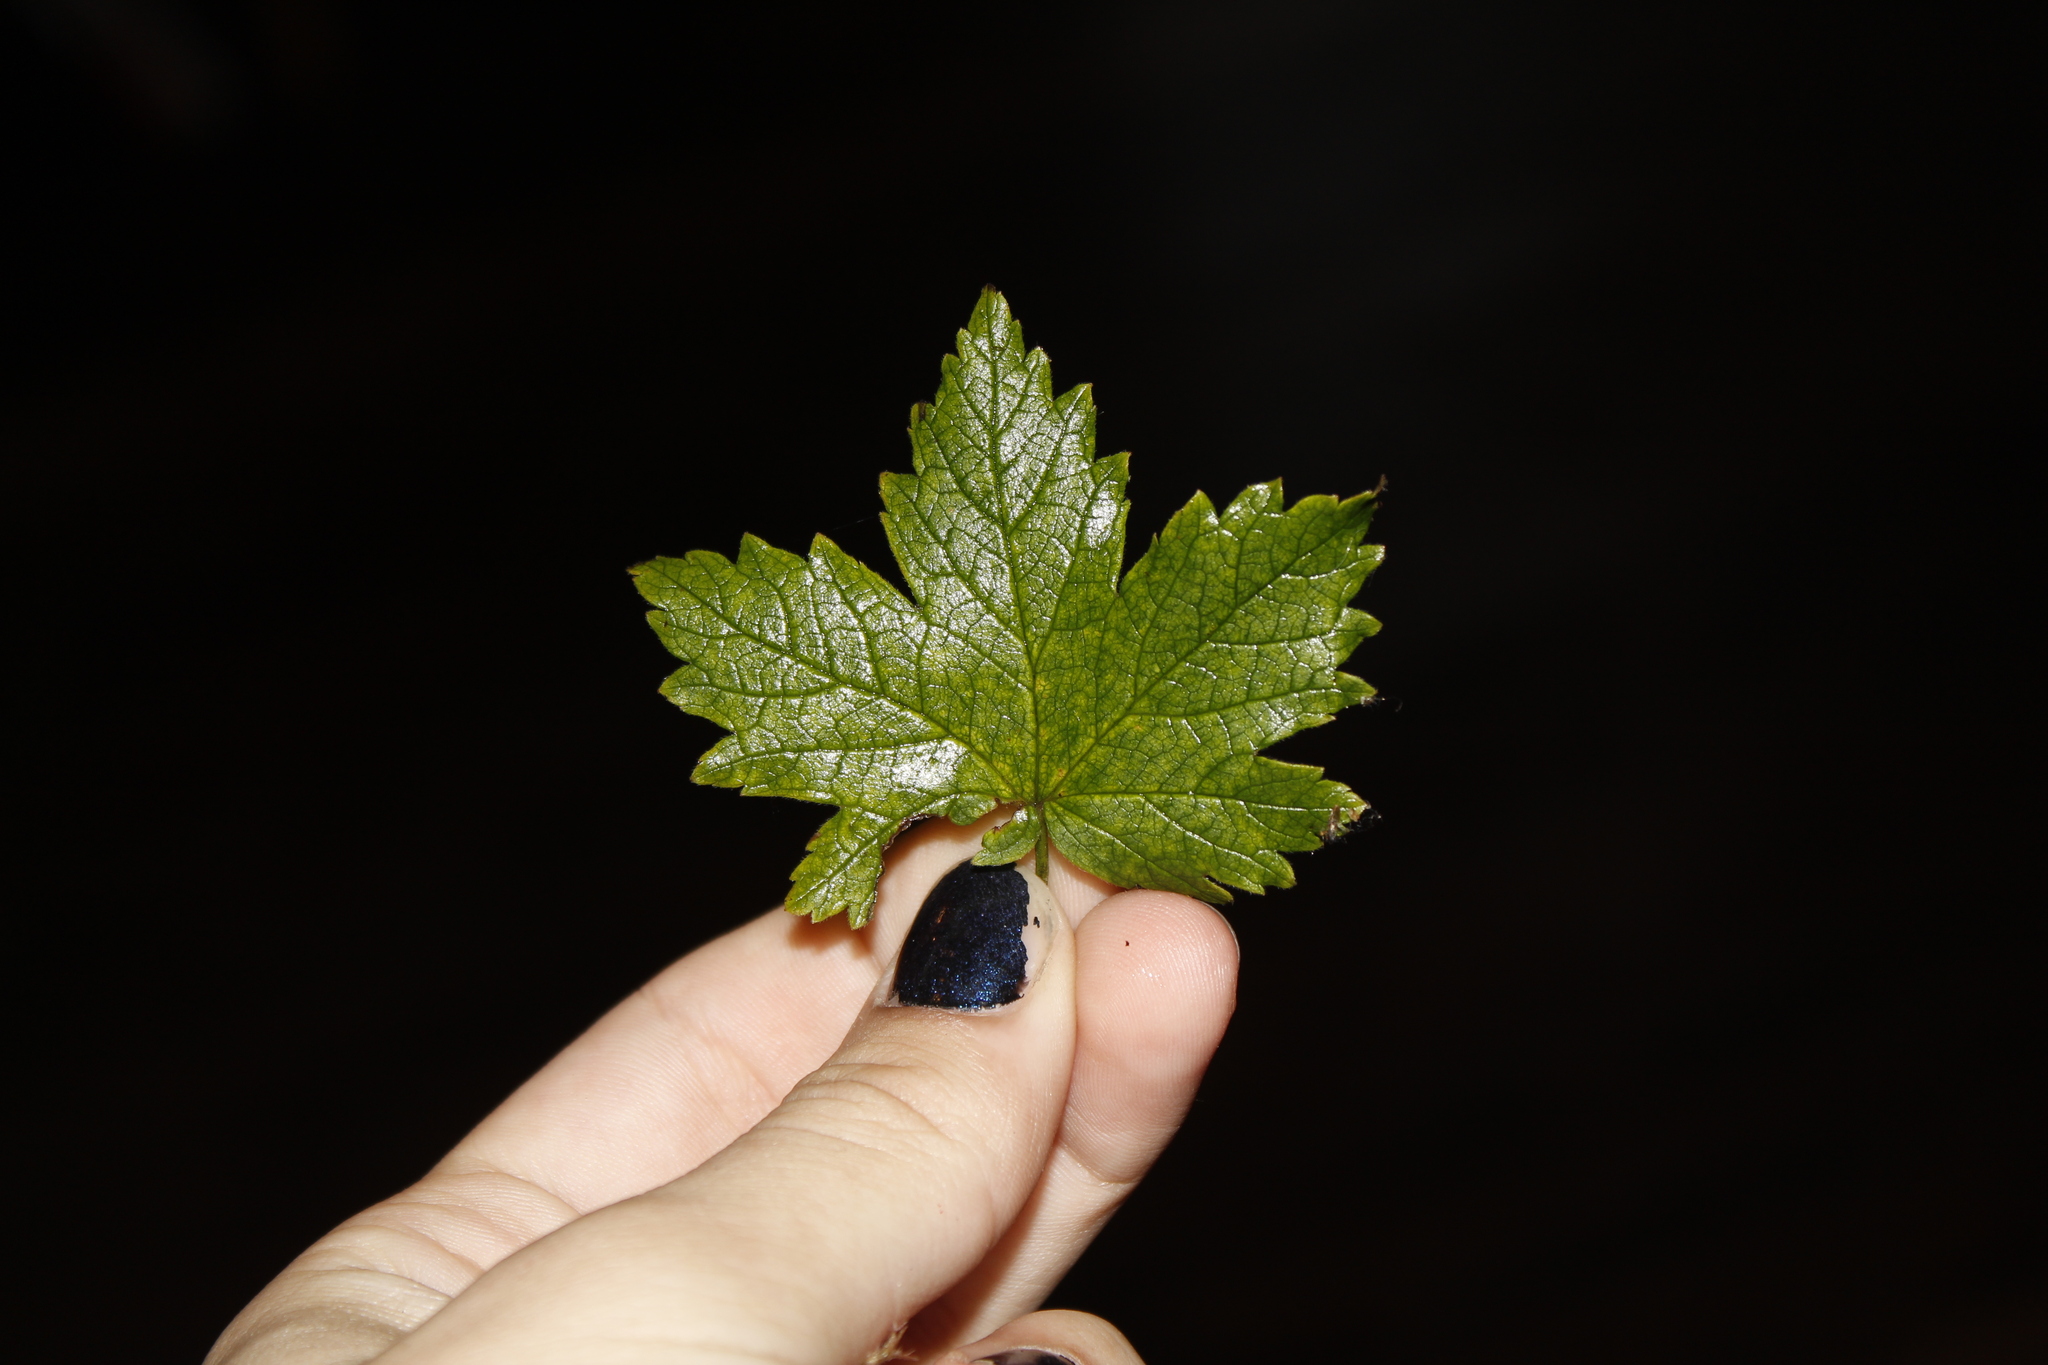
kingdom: Plantae
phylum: Tracheophyta
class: Magnoliopsida
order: Saxifragales
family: Grossulariaceae
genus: Ribes
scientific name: Ribes glandulosum
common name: Skunk currant
